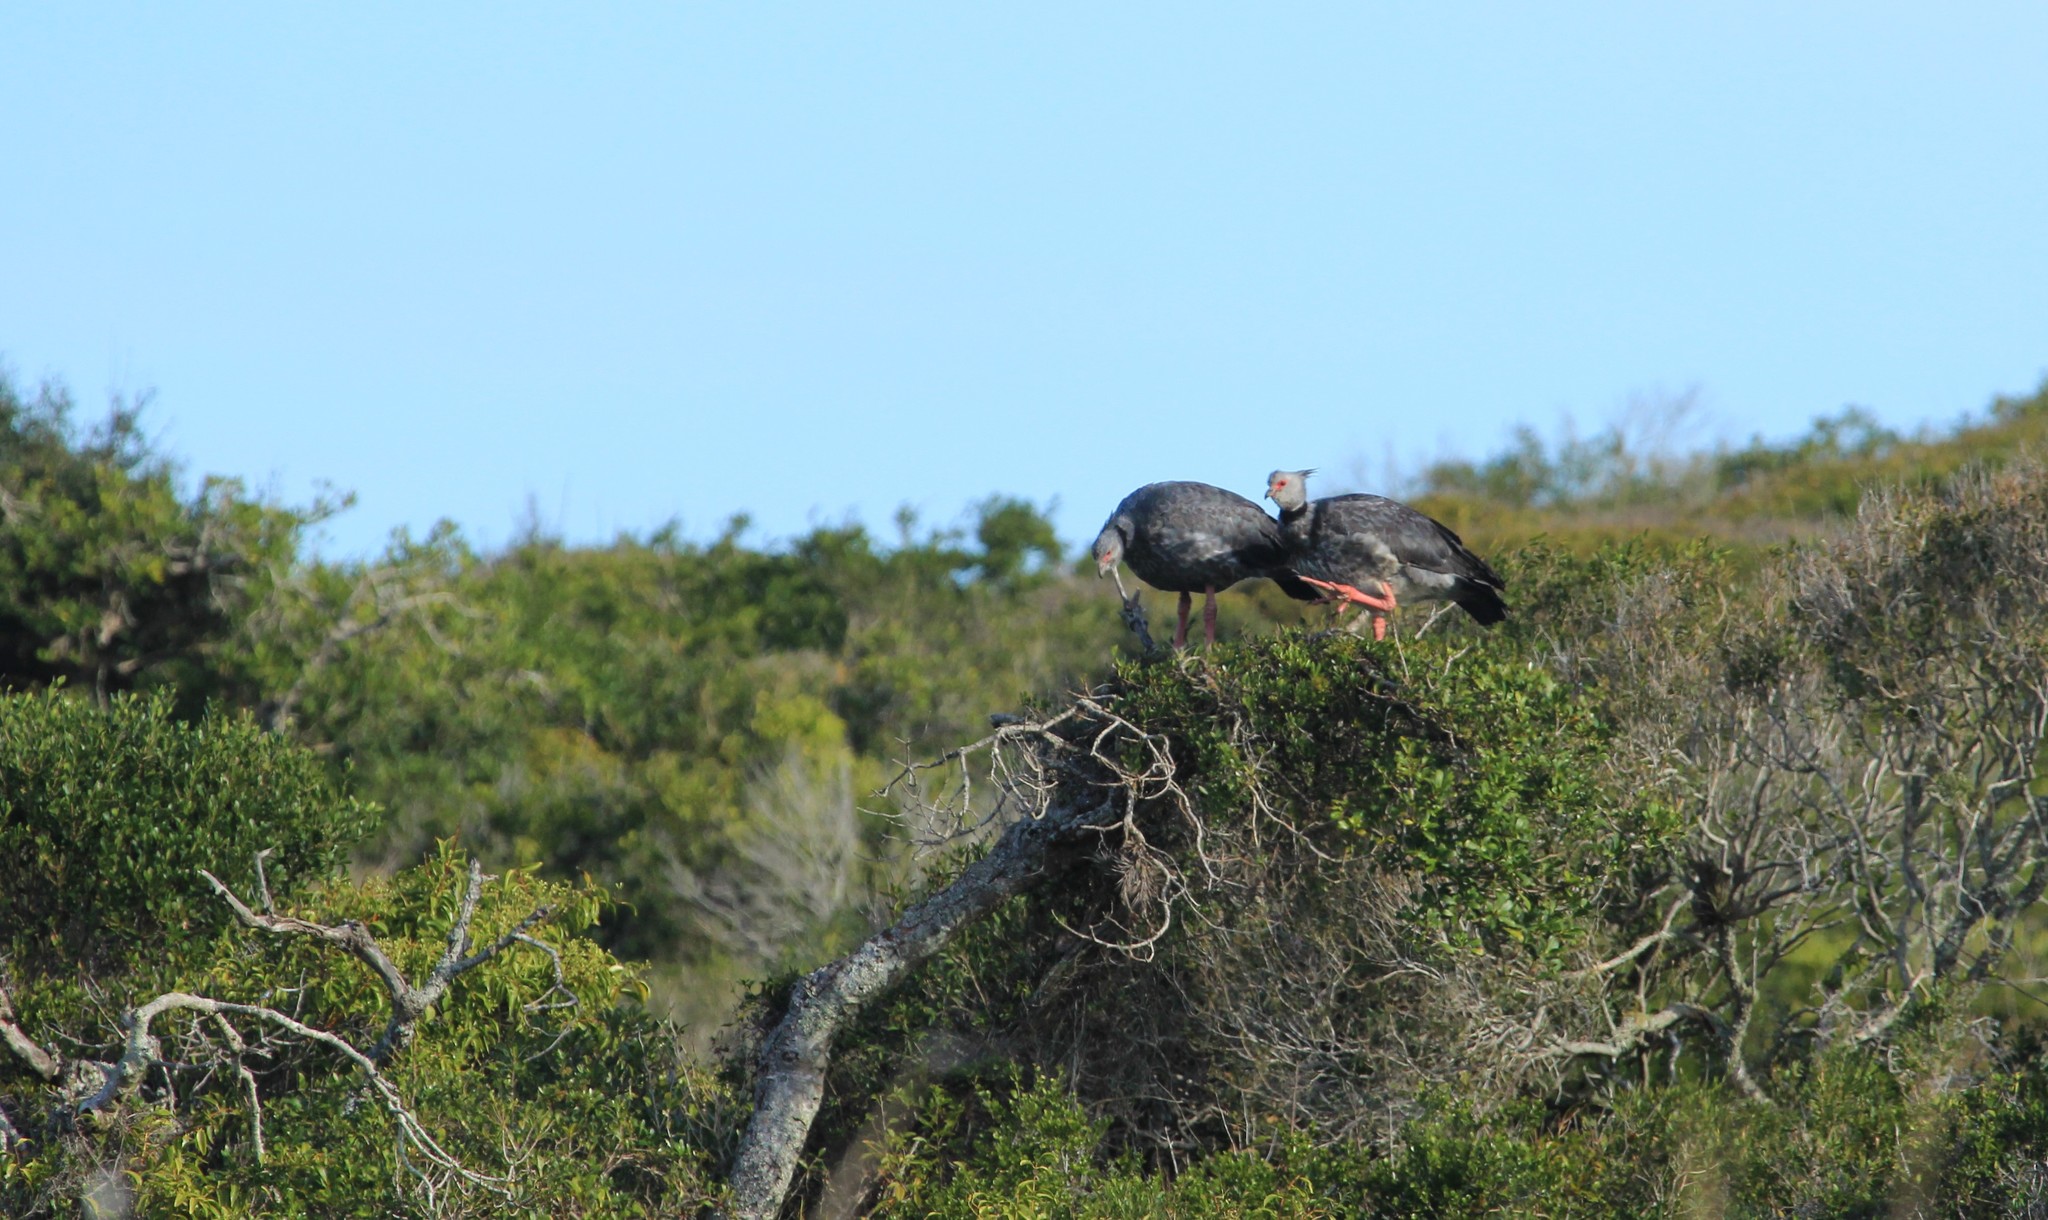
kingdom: Animalia
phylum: Chordata
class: Aves
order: Anseriformes
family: Anhimidae
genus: Chauna
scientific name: Chauna torquata
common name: Southern screamer
